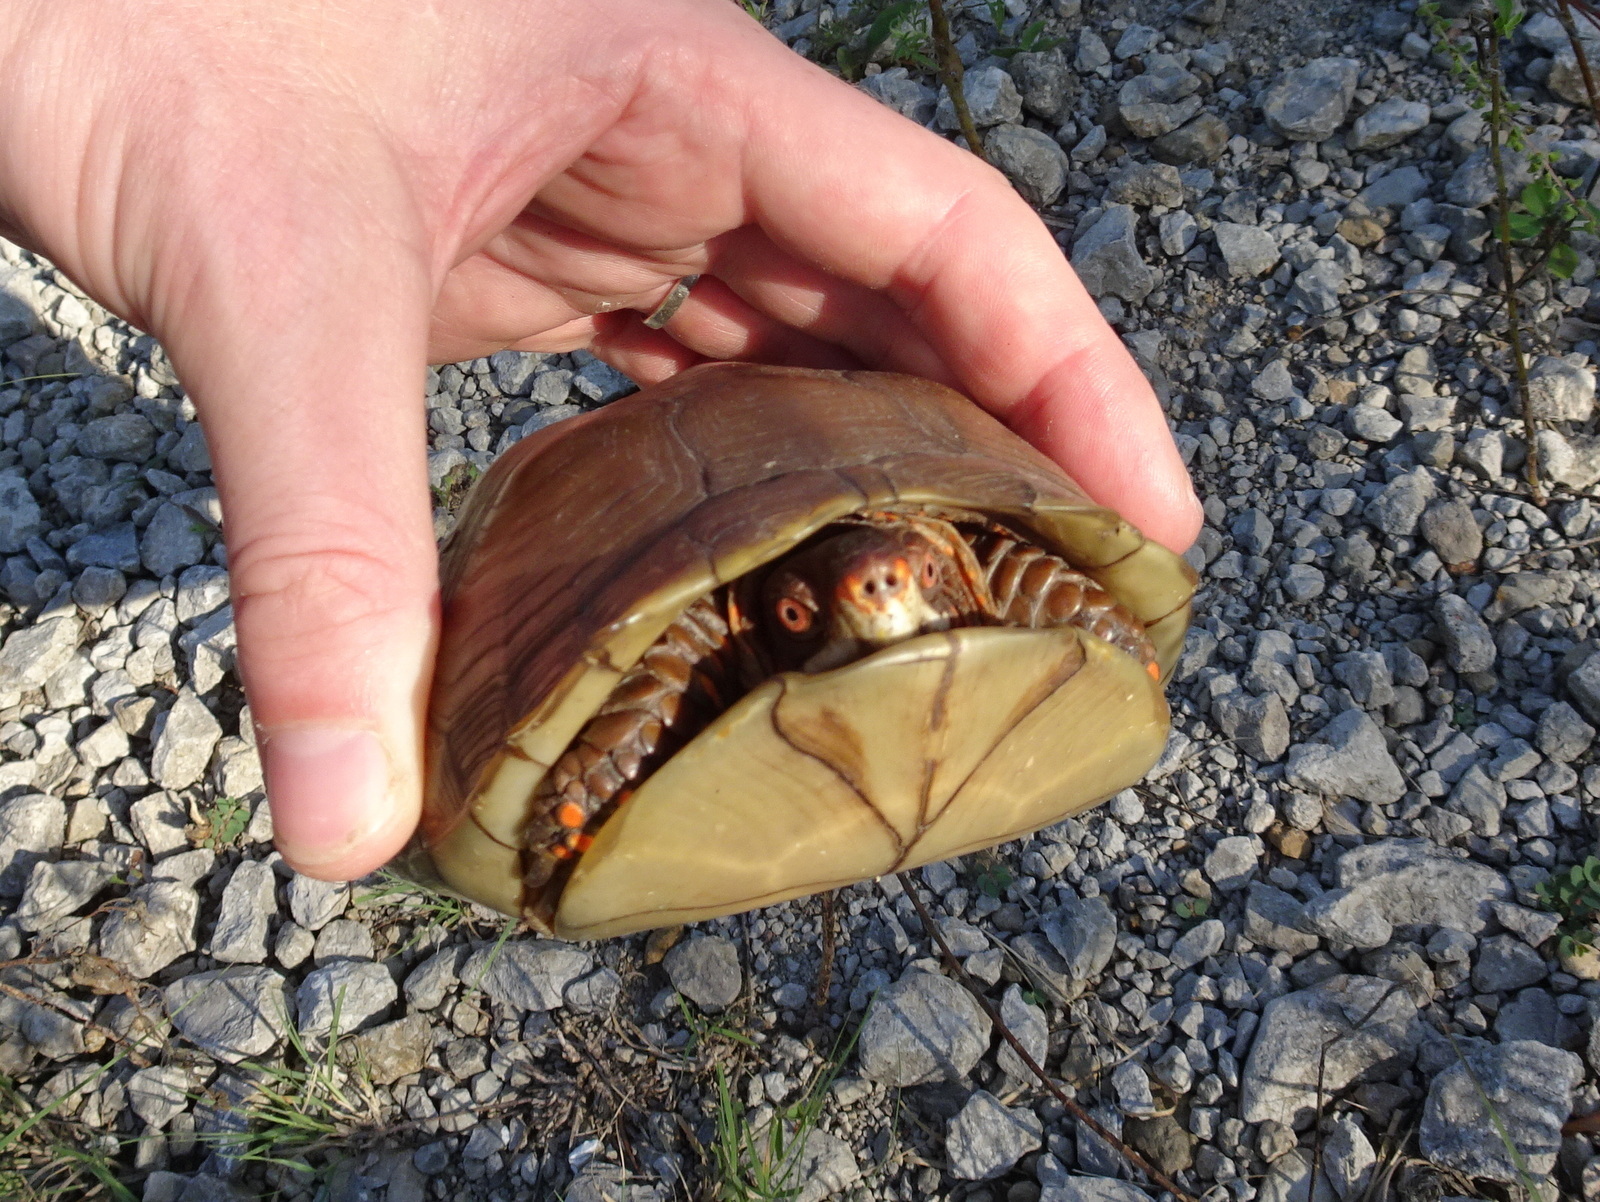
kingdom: Animalia
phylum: Chordata
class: Testudines
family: Emydidae
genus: Terrapene
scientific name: Terrapene carolina
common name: Common box turtle
